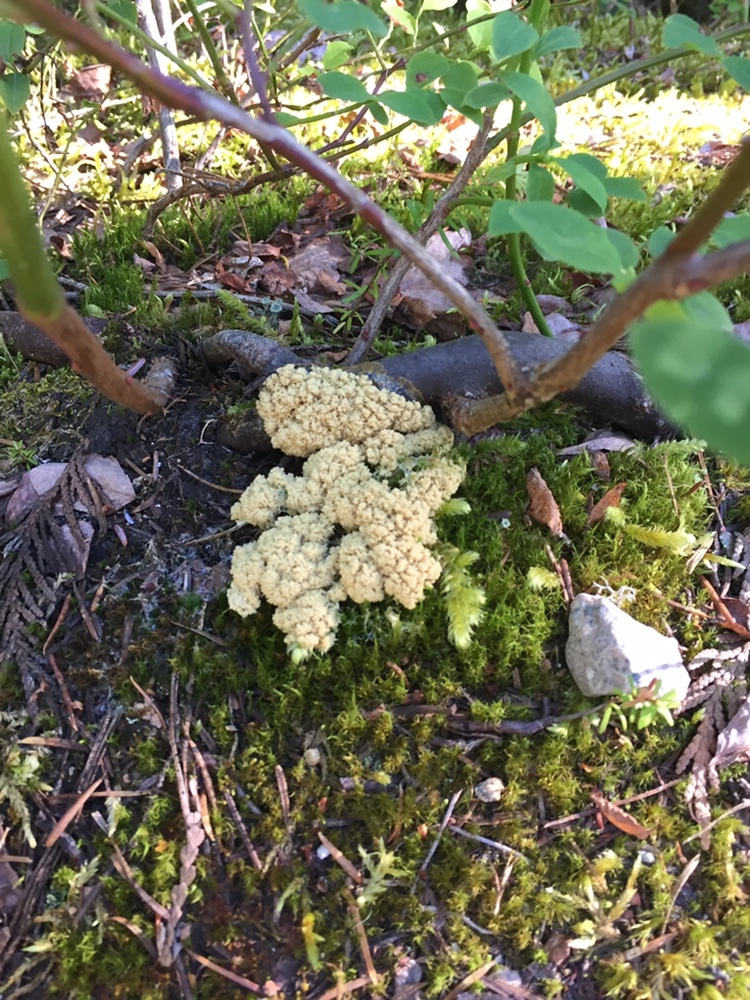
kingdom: Protozoa
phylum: Mycetozoa
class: Myxomycetes
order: Physarales
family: Physaraceae
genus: Didymium
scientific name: Didymium
